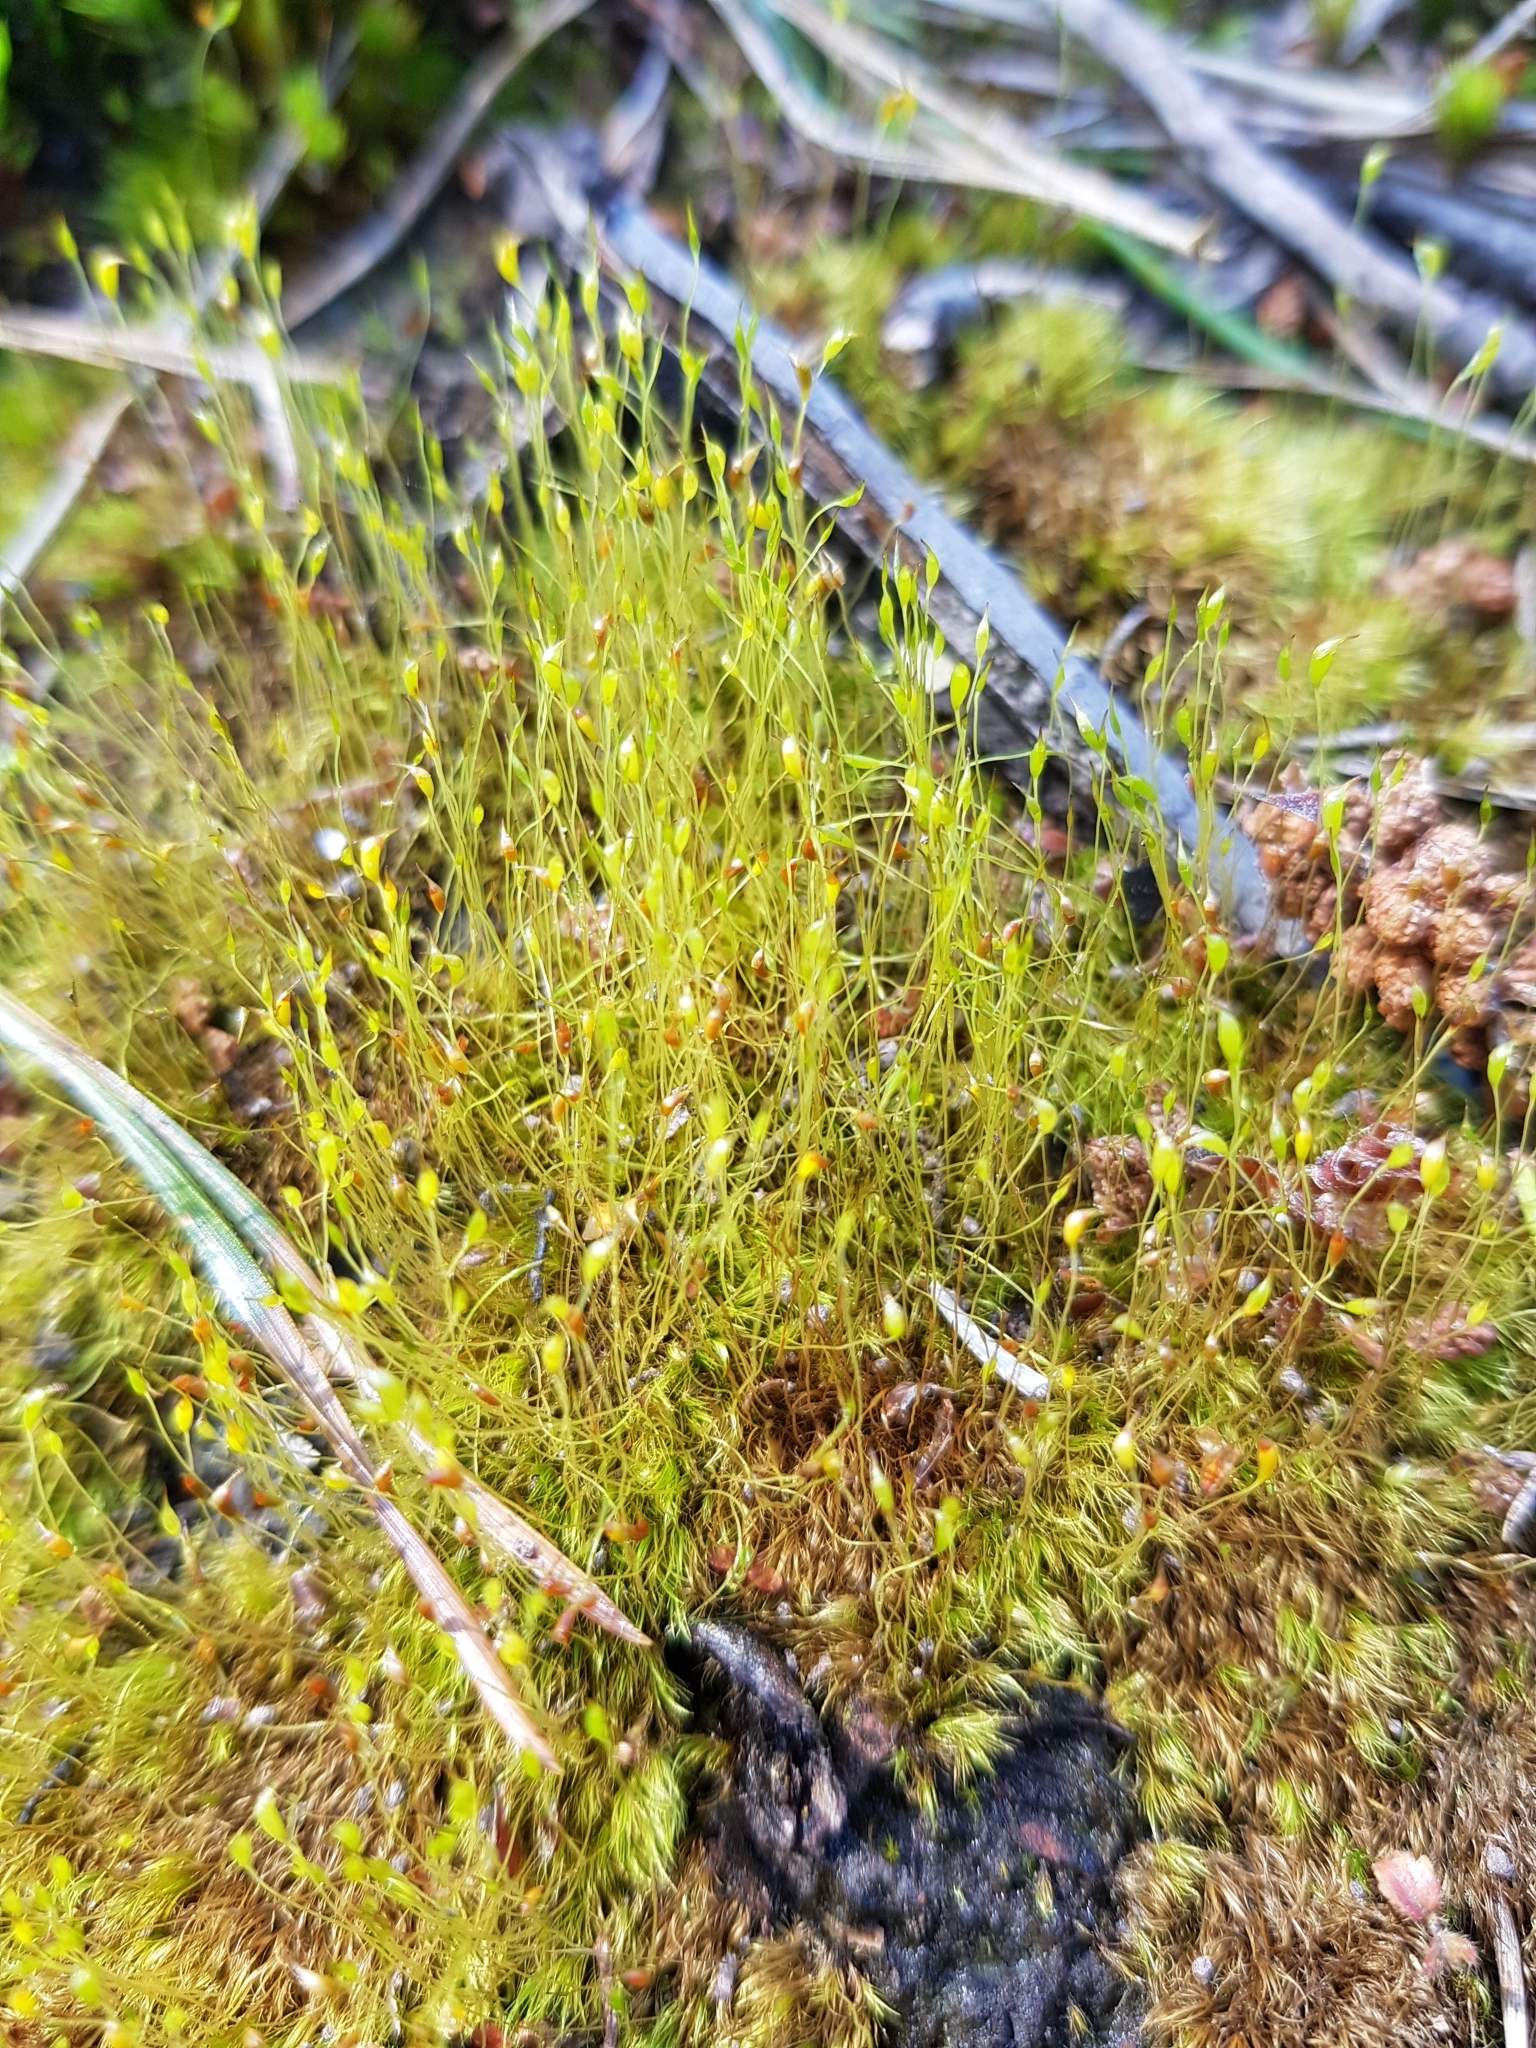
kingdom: Plantae
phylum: Bryophyta
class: Bryopsida
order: Dicranales
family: Dicranellaceae
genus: Dicranella
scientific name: Dicranella heteromalla
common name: Silky forklet moss
